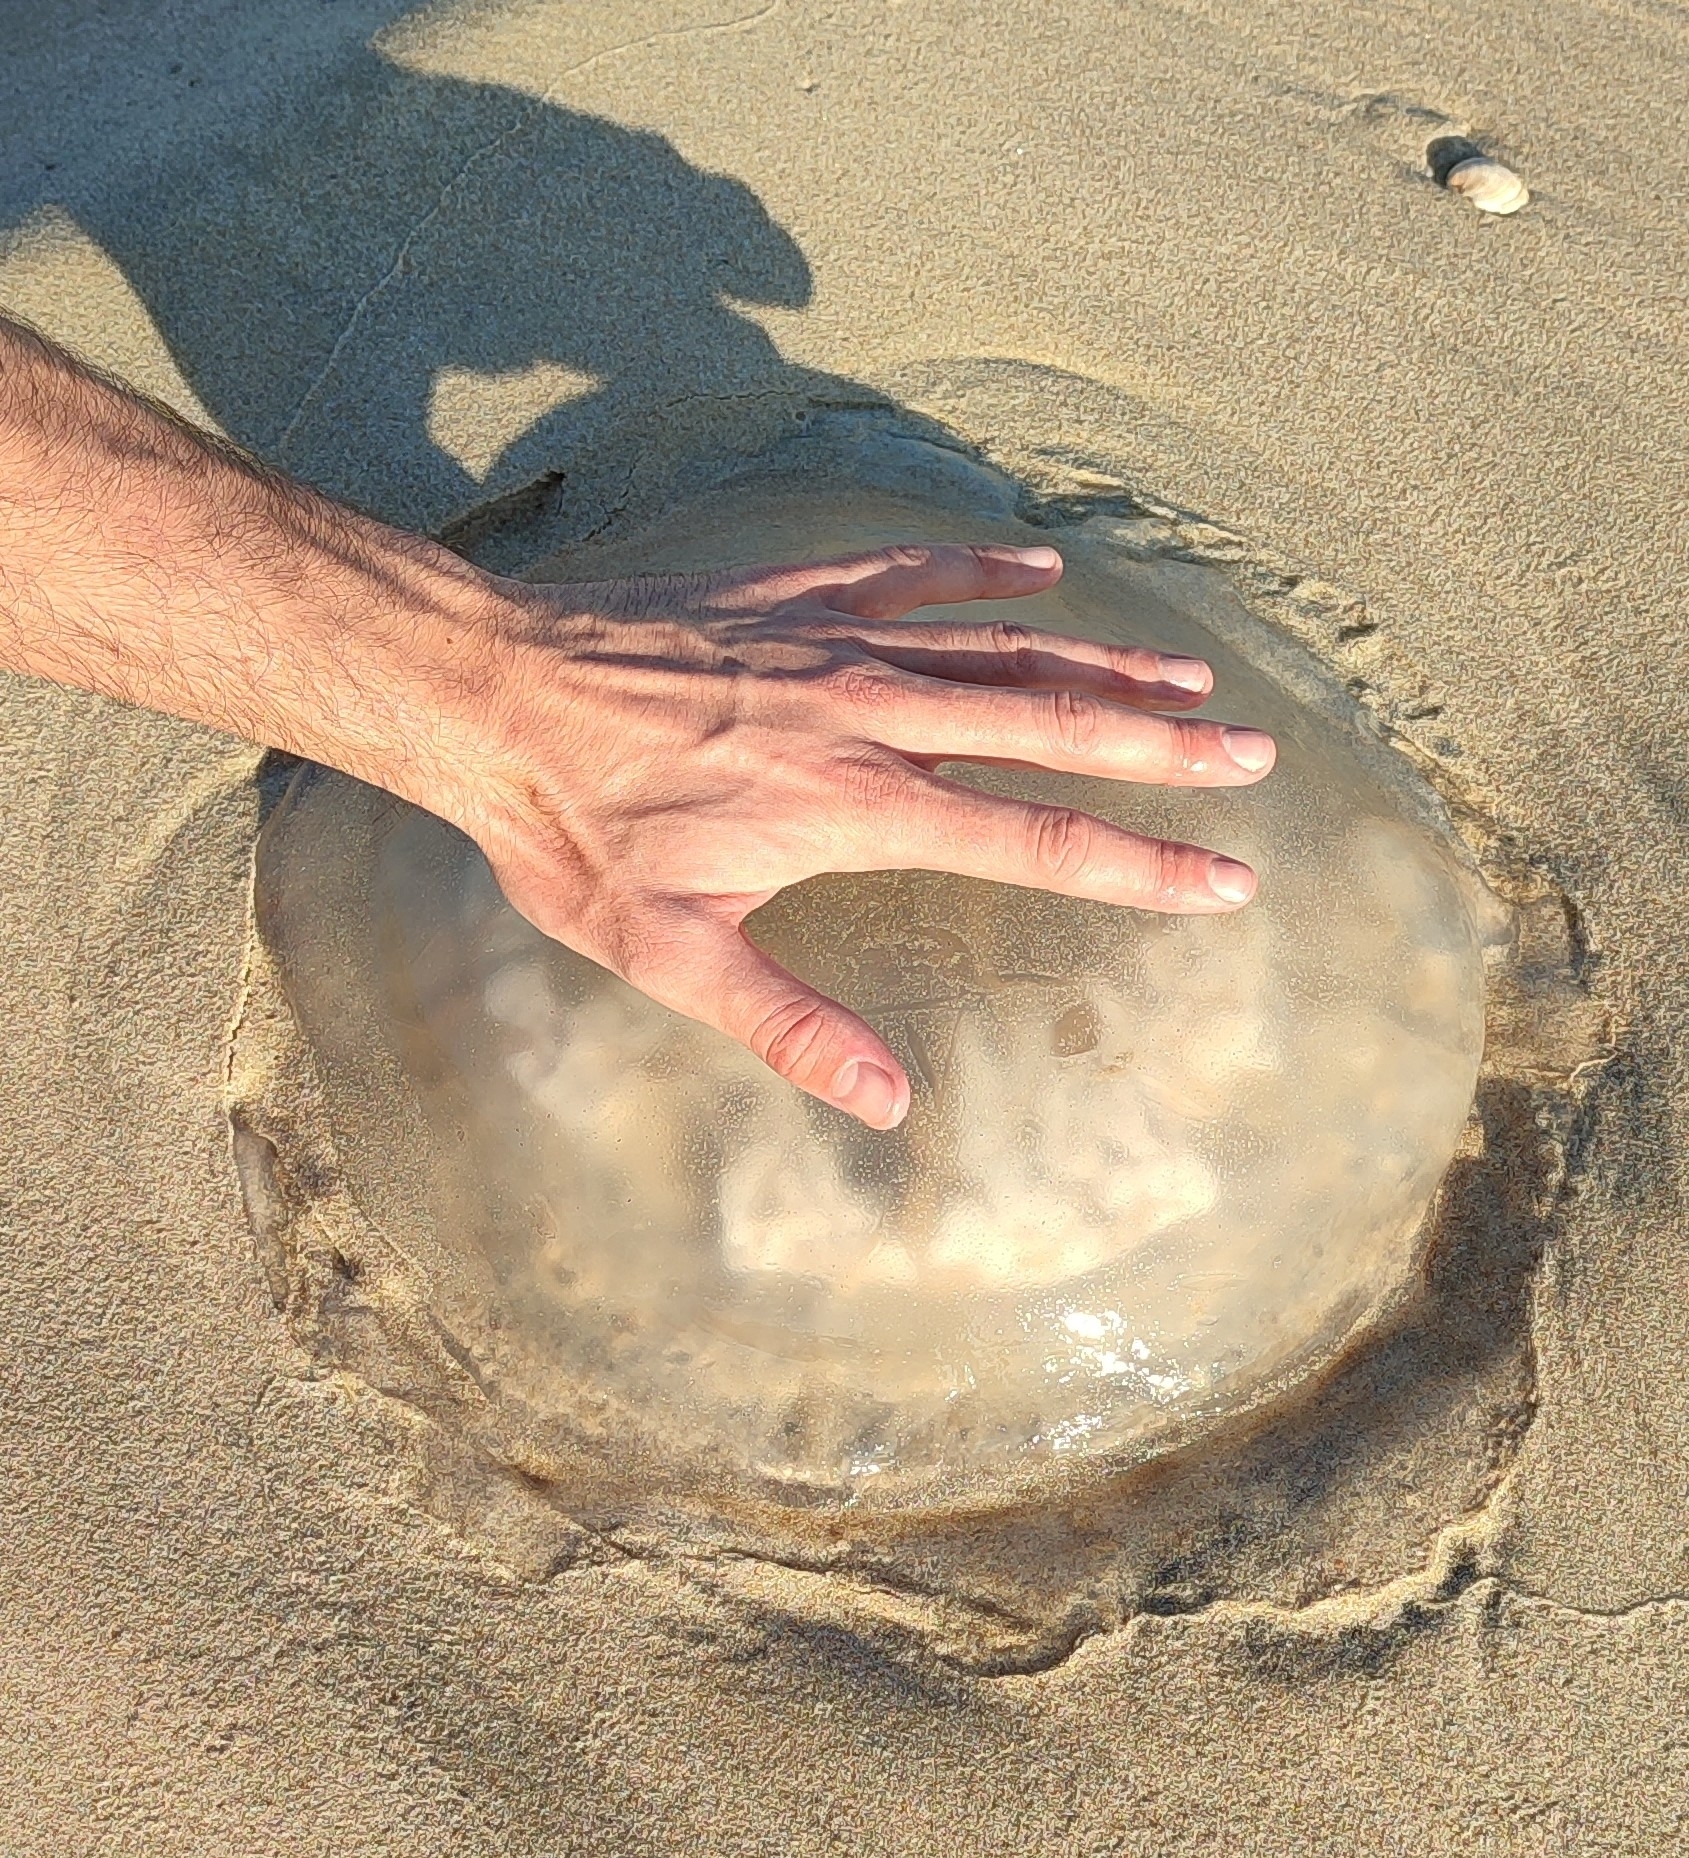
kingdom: Animalia
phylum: Cnidaria
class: Scyphozoa
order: Rhizostomeae
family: Rhizostomatidae
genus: Rhizostoma
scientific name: Rhizostoma luteum
